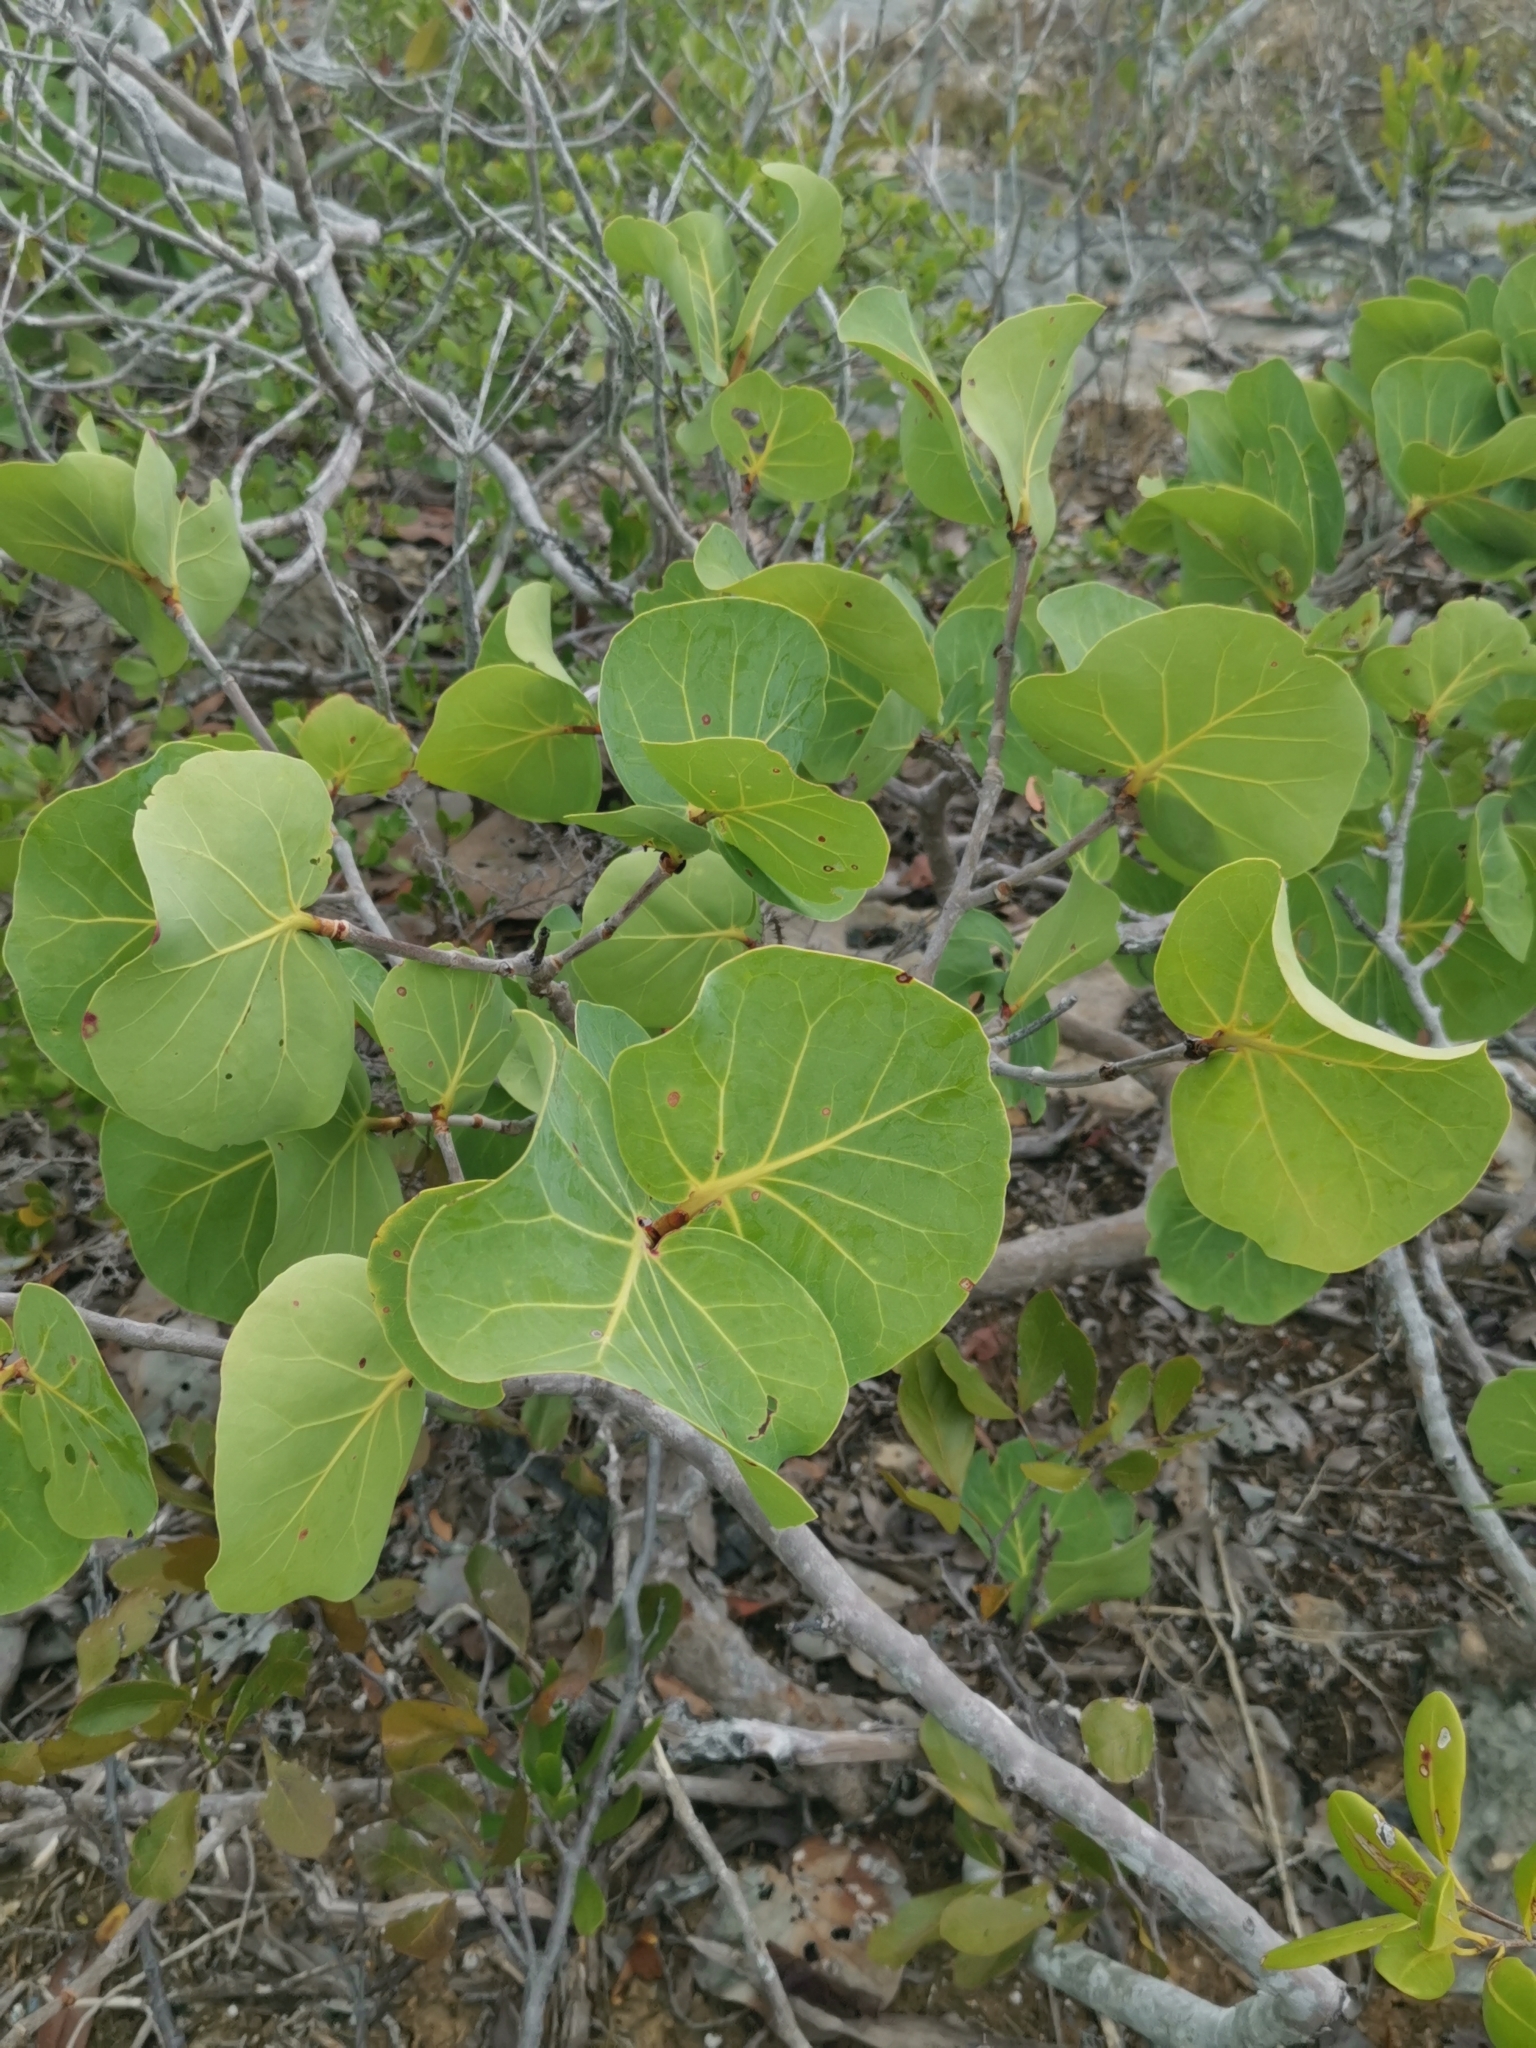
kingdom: Plantae
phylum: Tracheophyta
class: Magnoliopsida
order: Caryophyllales
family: Polygonaceae
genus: Coccoloba
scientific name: Coccoloba uvifera
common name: Seagrape
